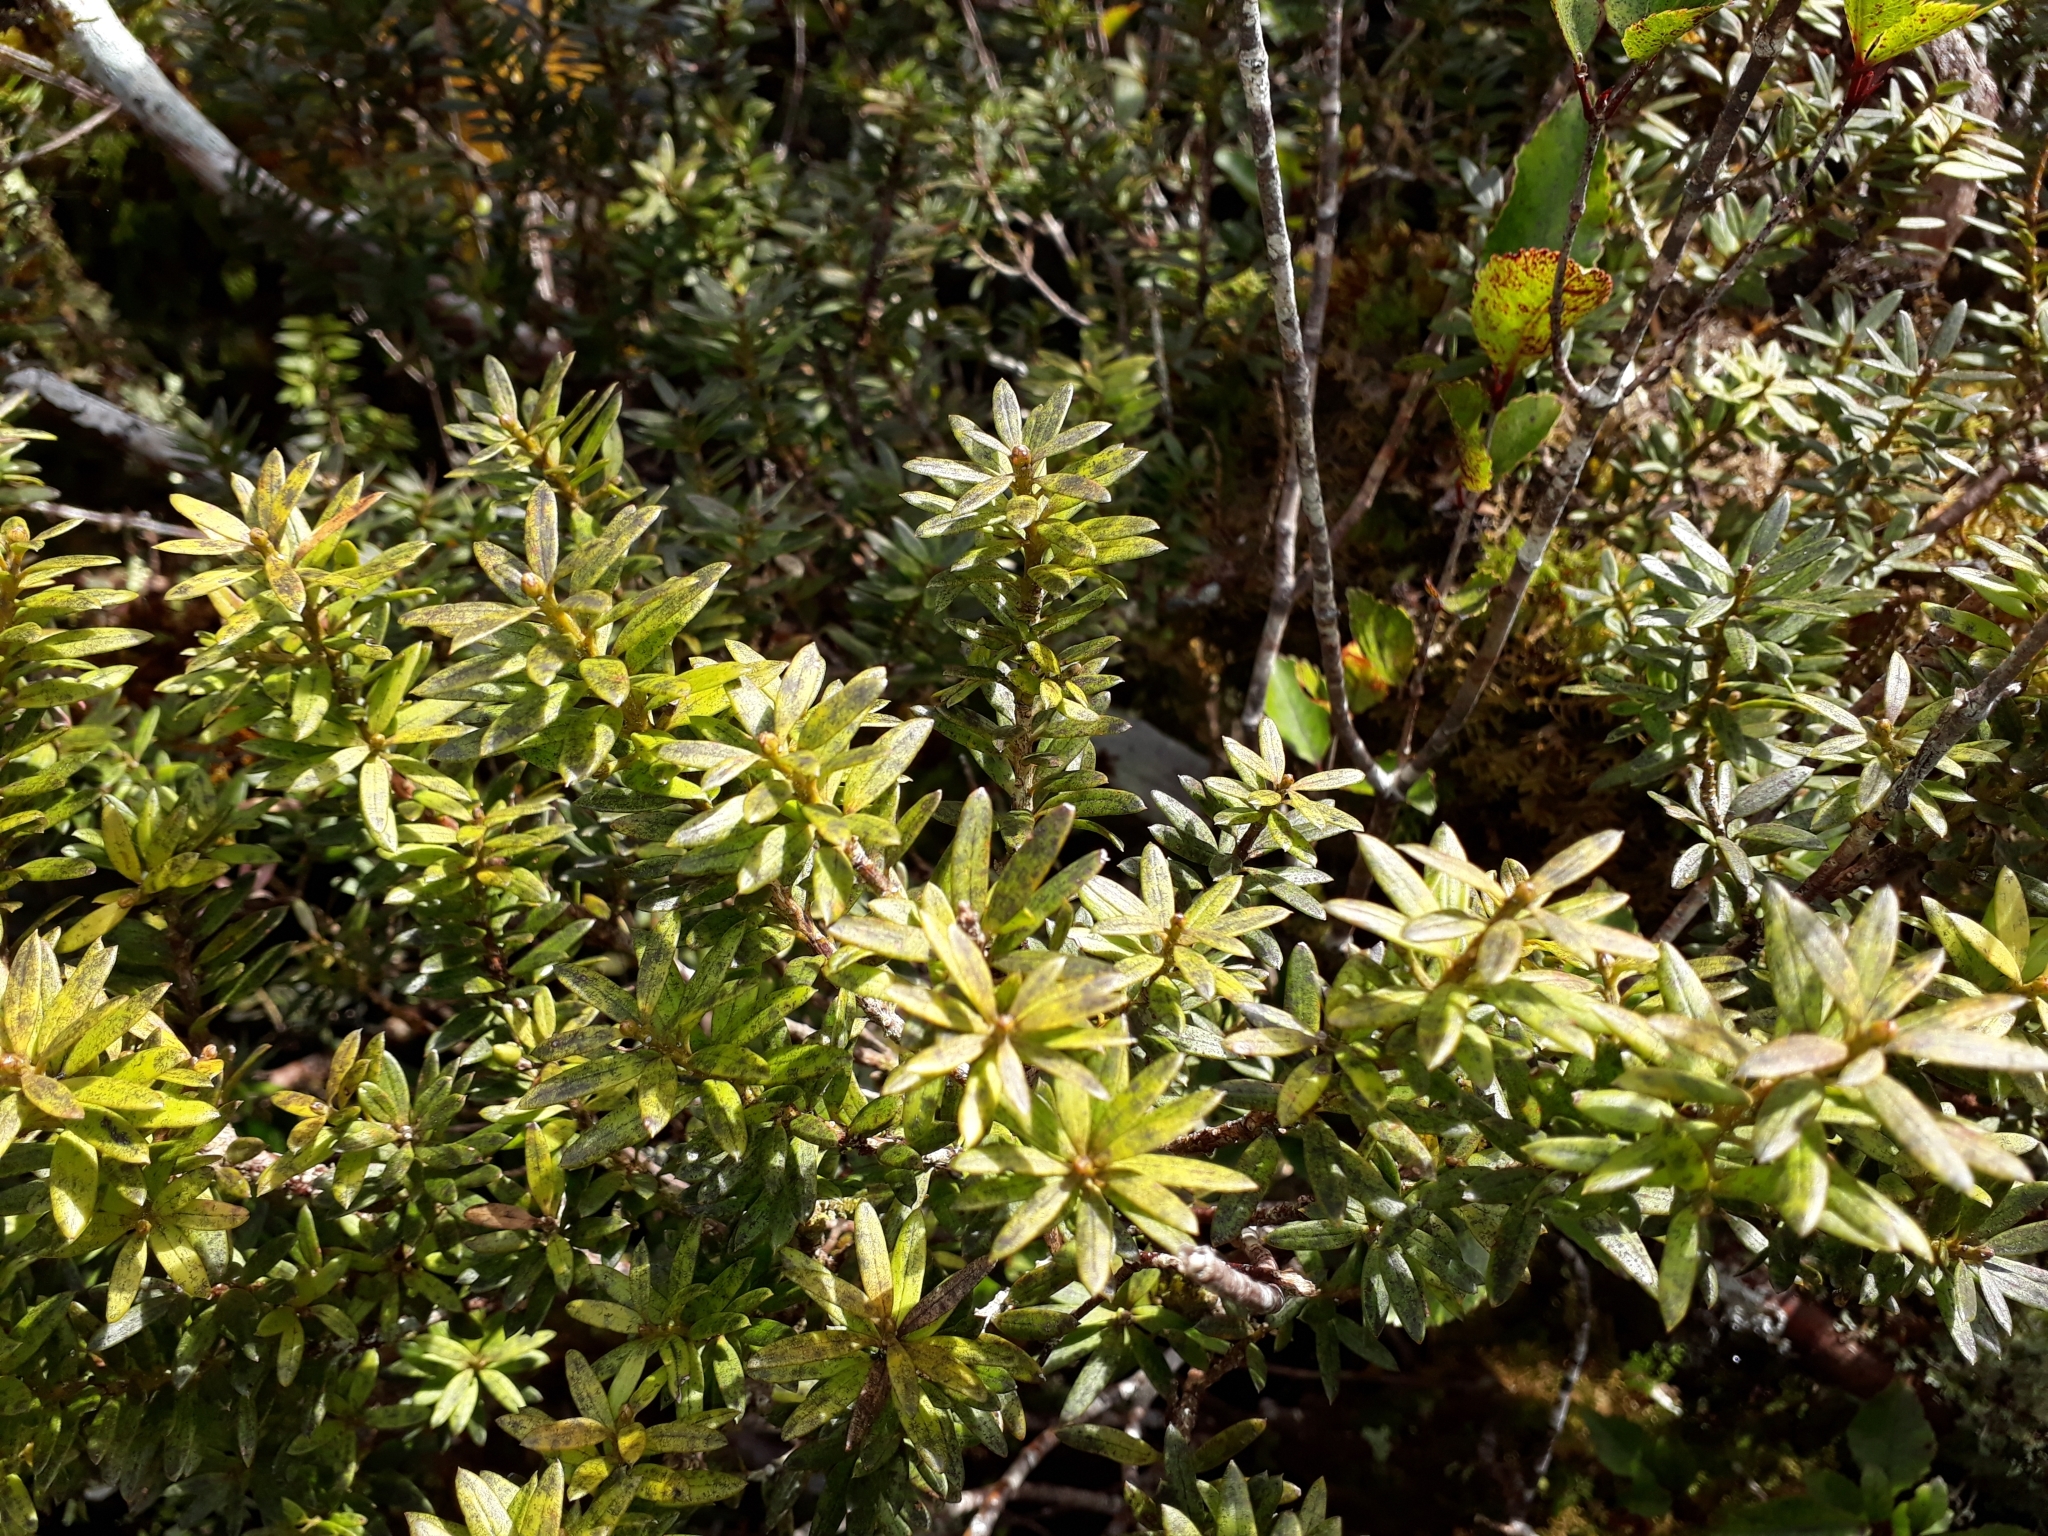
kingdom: Plantae
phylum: Tracheophyta
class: Pinopsida
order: Pinales
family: Podocarpaceae
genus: Podocarpus
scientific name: Podocarpus laetus
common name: Hall's totara
